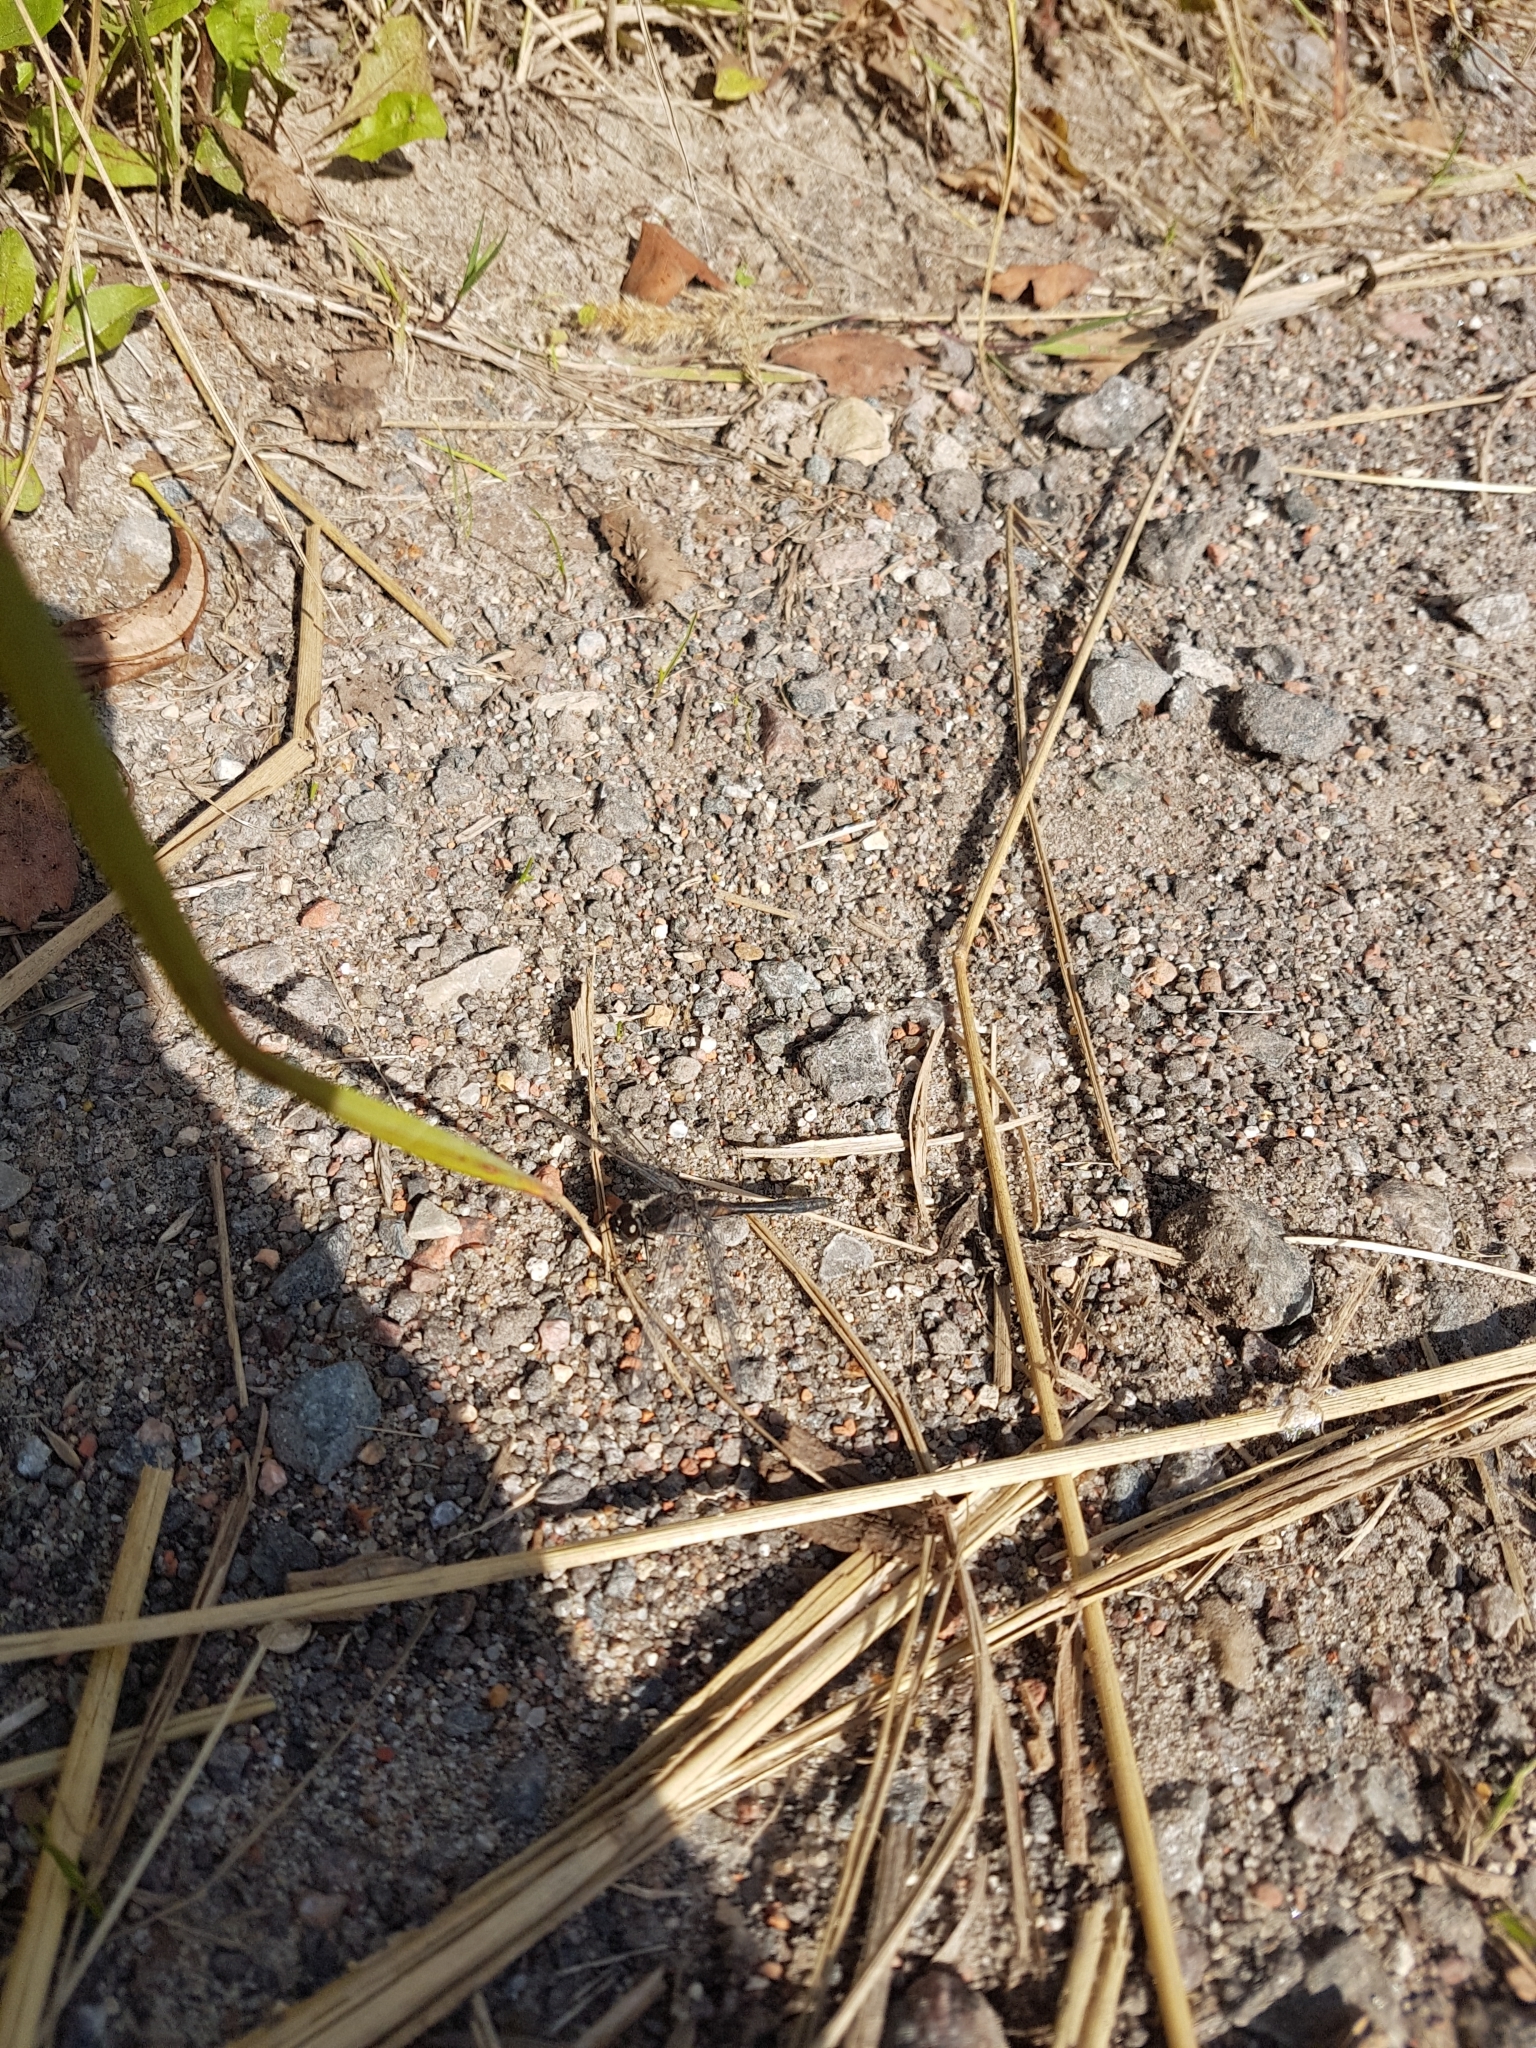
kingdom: Animalia
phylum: Arthropoda
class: Insecta
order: Odonata
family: Libellulidae
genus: Sympetrum
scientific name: Sympetrum danae
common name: Black darter
